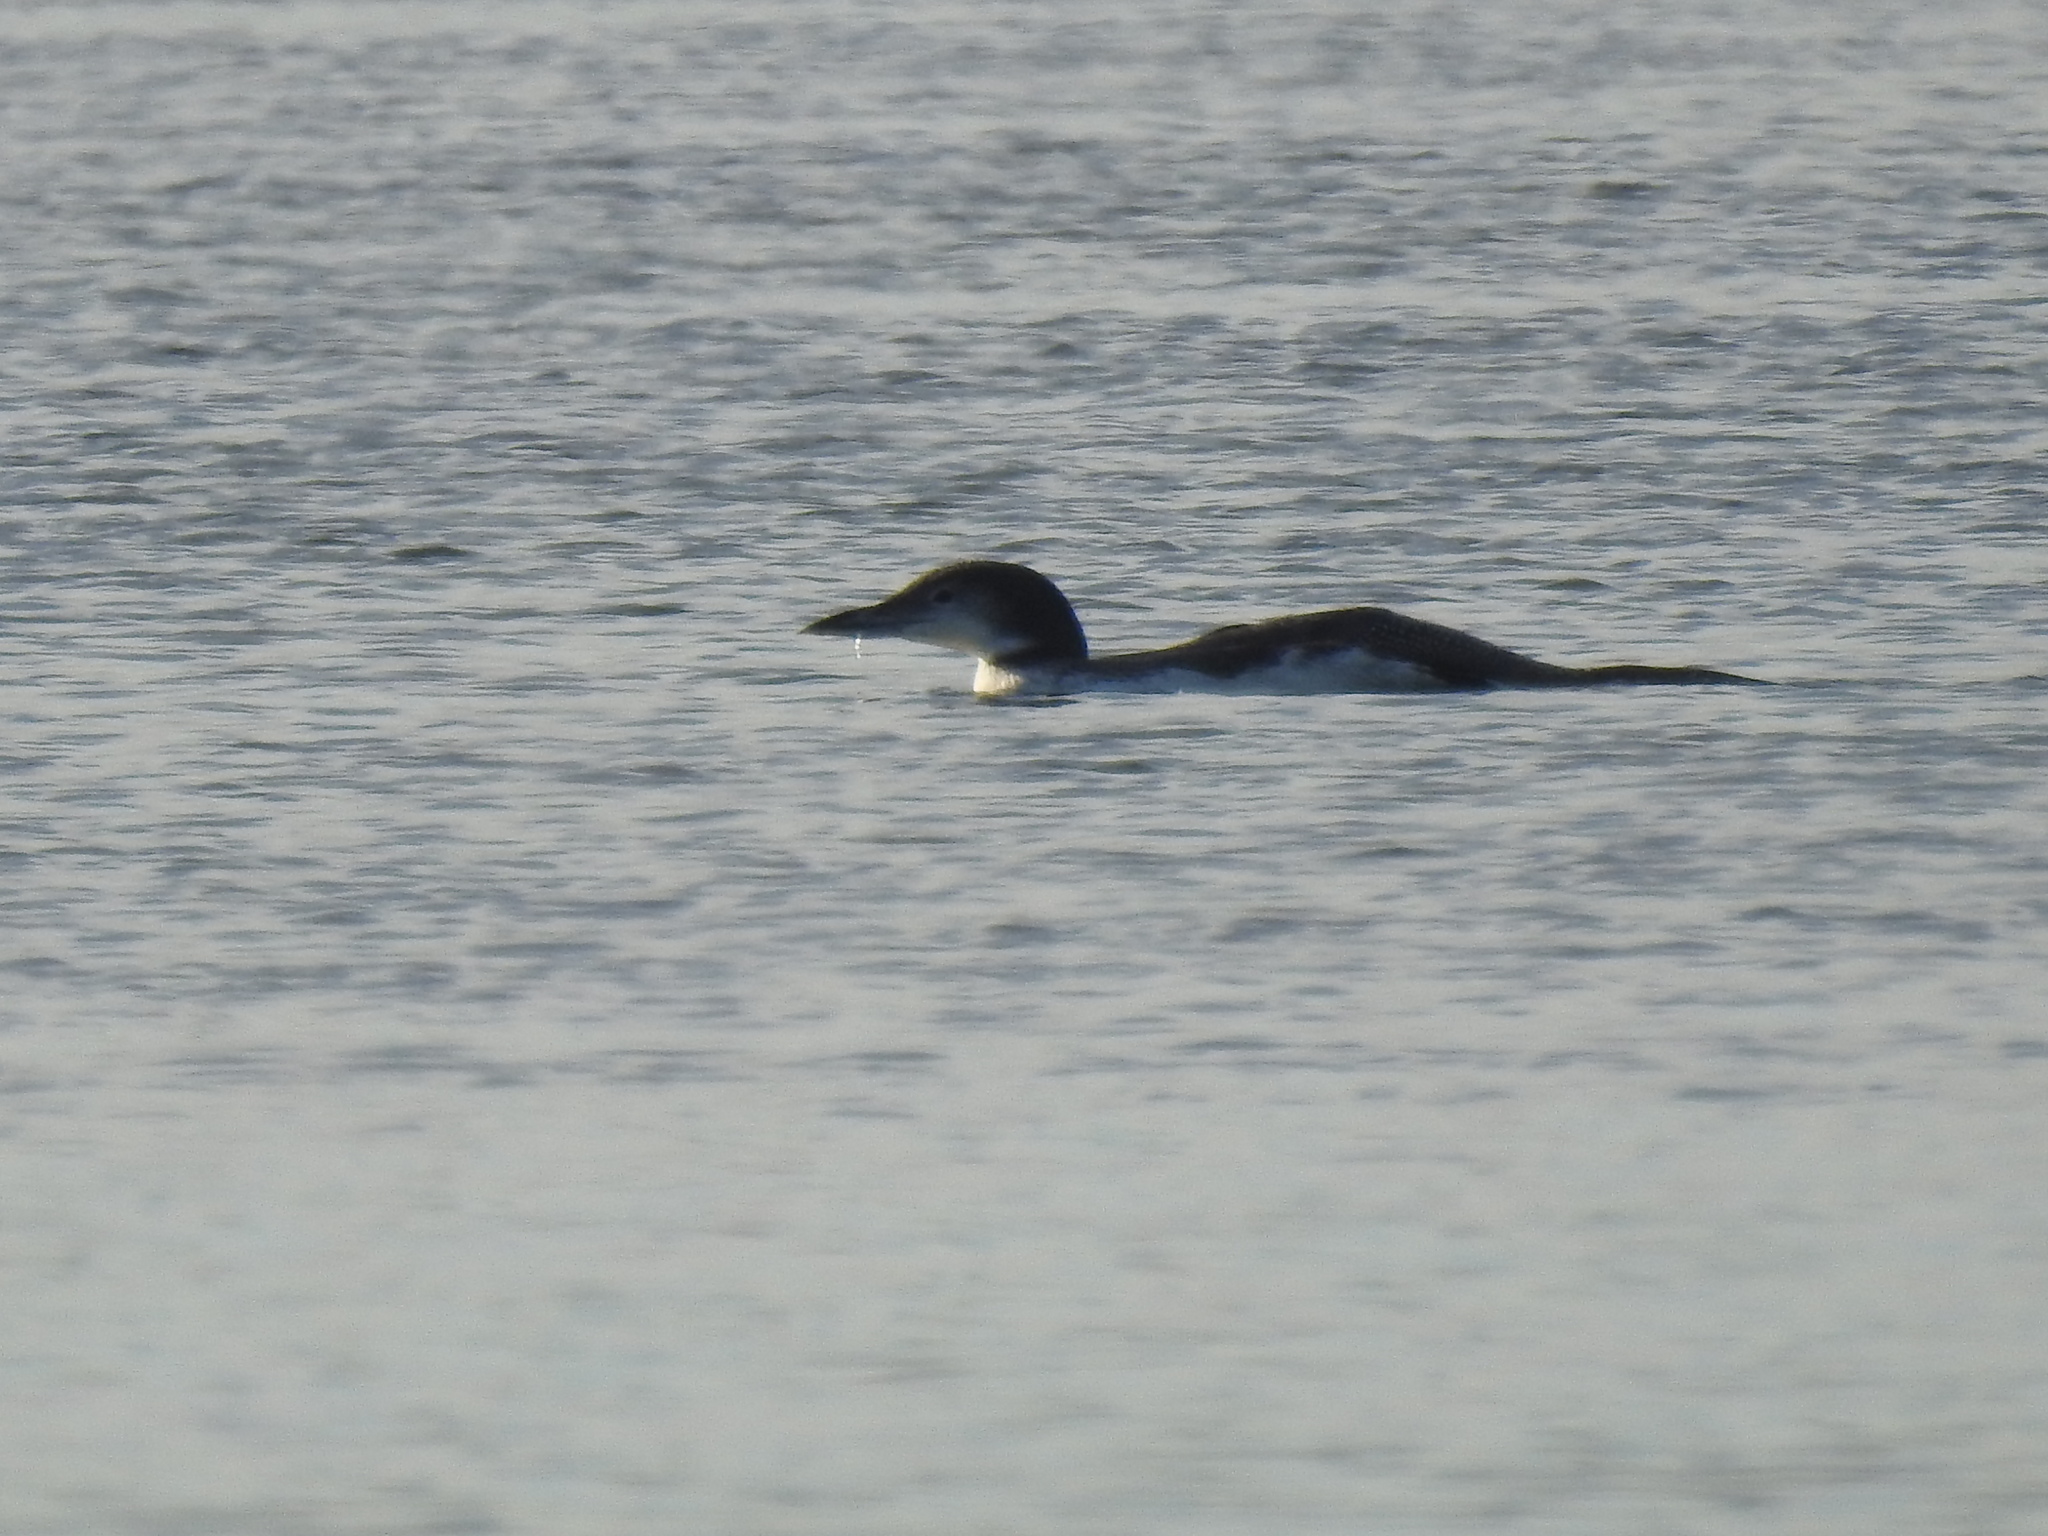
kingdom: Animalia
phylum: Chordata
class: Aves
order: Gaviiformes
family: Gaviidae
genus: Gavia
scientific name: Gavia immer
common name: Common loon
